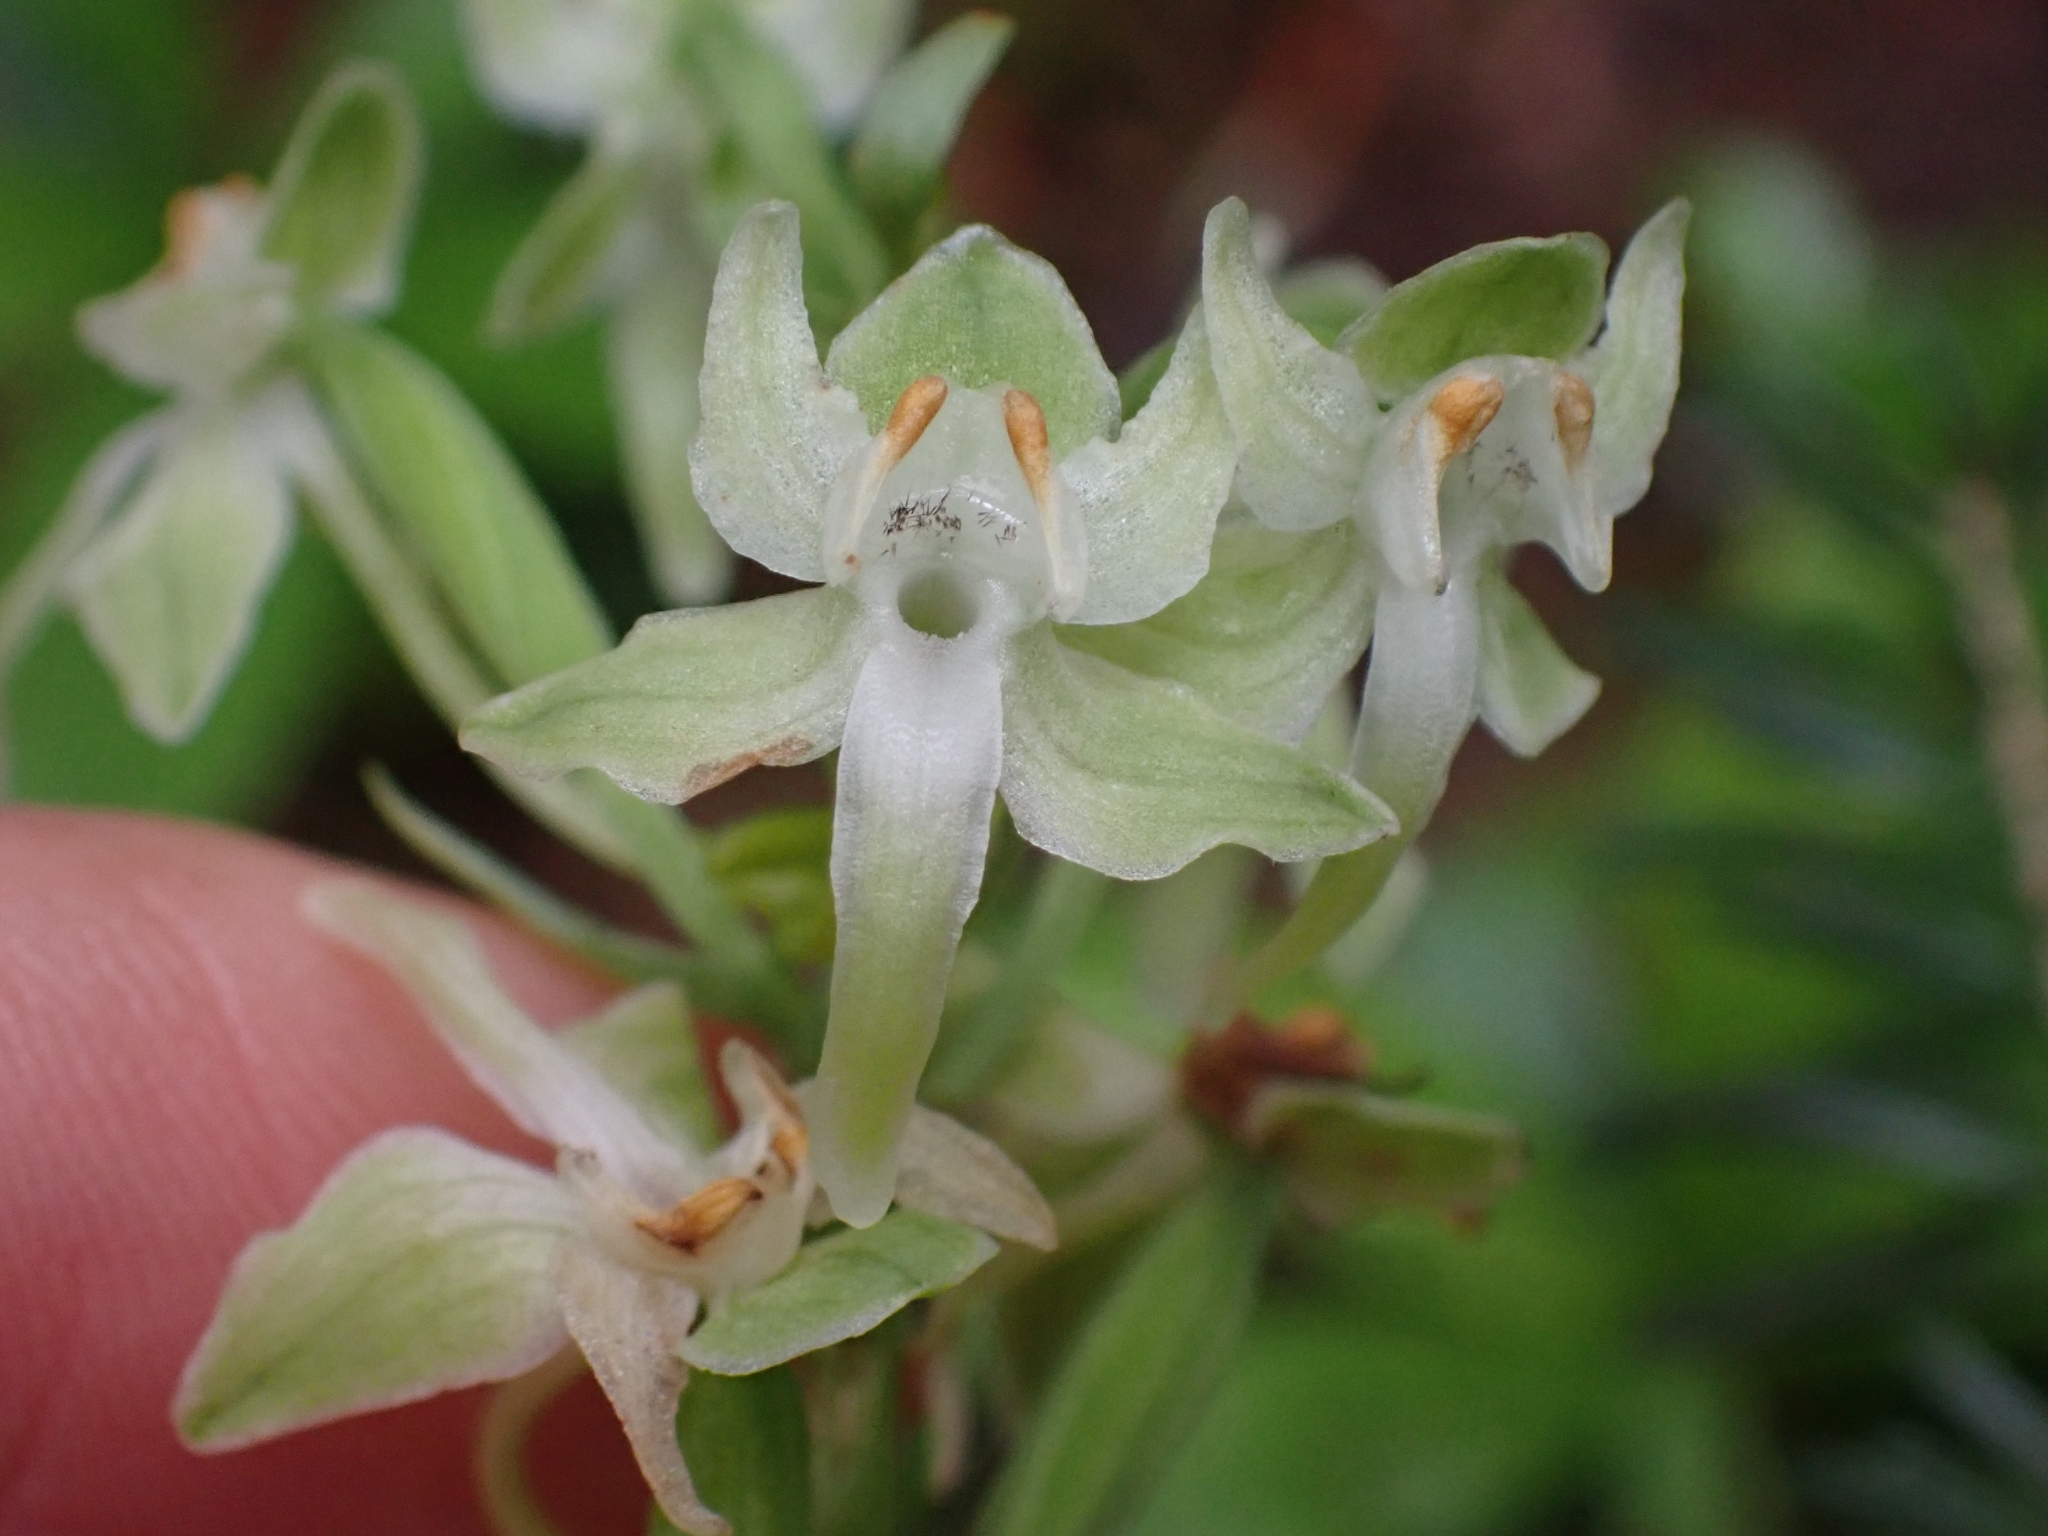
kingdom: Plantae
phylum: Tracheophyta
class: Liliopsida
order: Asparagales
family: Orchidaceae
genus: Platanthera
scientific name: Platanthera orbiculata
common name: Large round-leaved orchid
